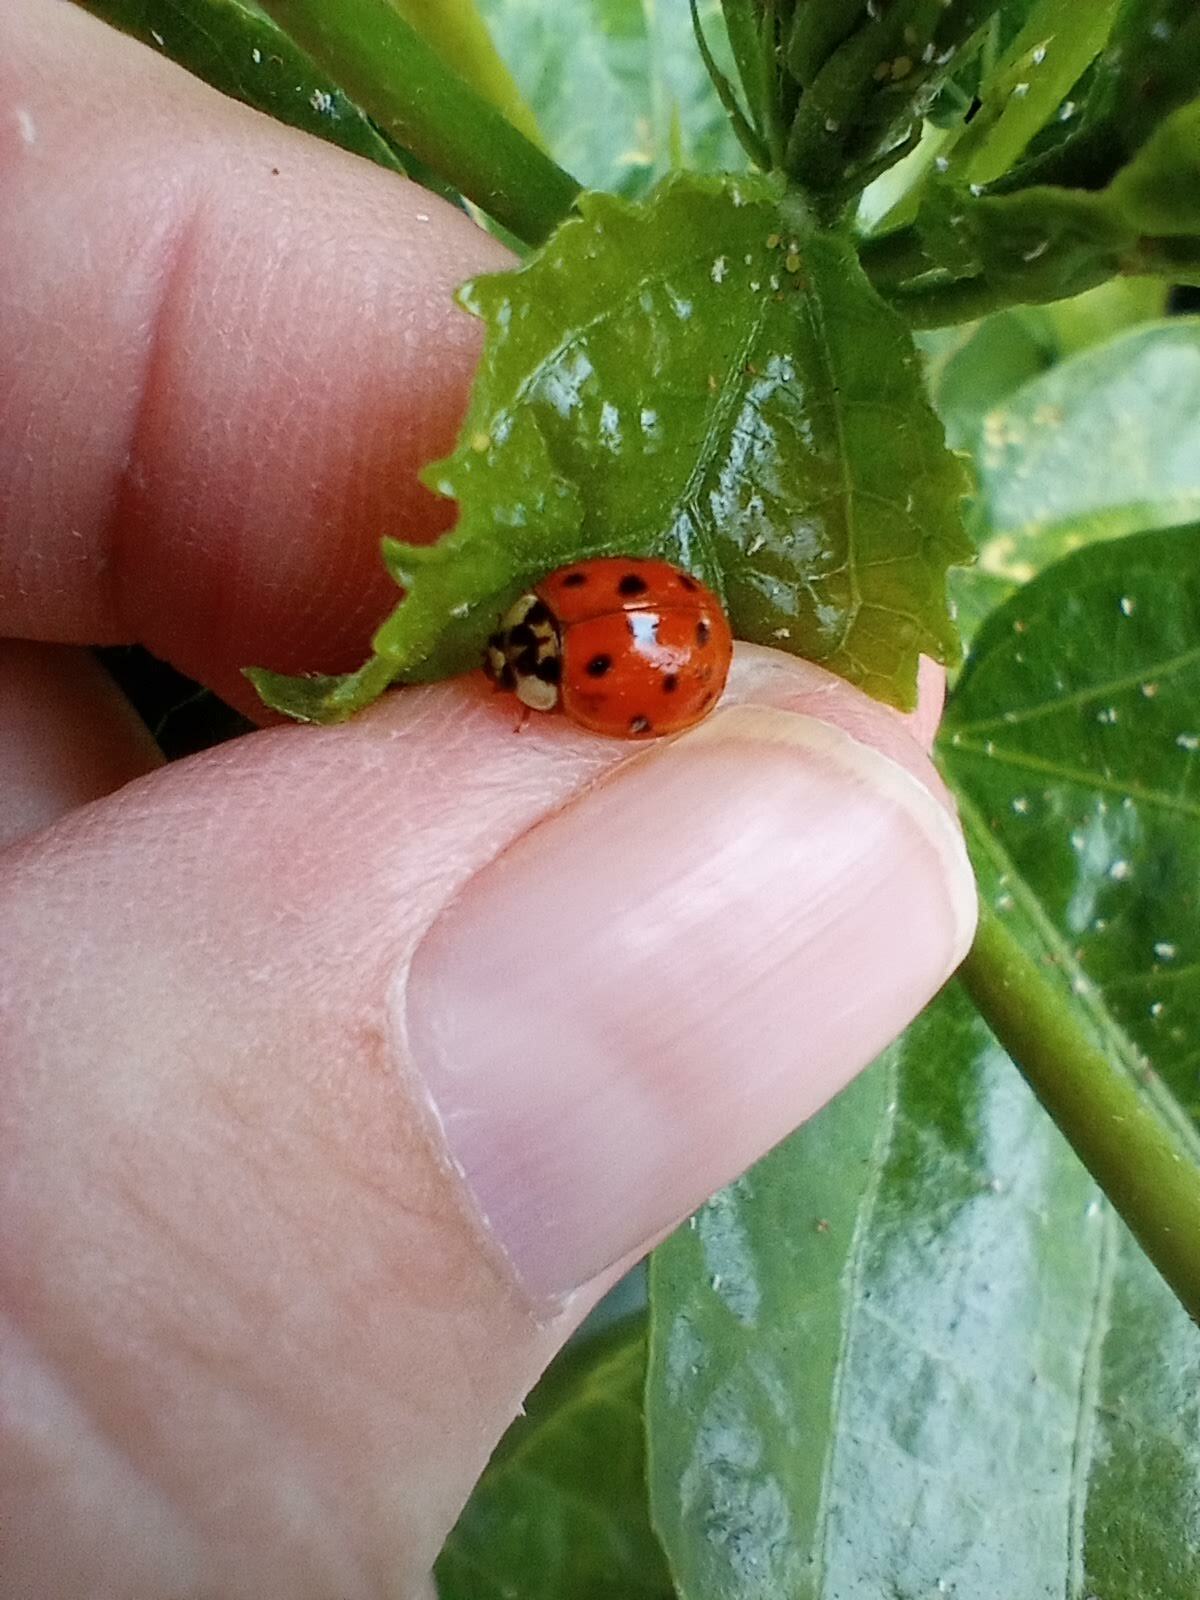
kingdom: Animalia
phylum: Arthropoda
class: Insecta
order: Coleoptera
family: Coccinellidae
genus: Harmonia
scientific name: Harmonia axyridis
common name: Harlequin ladybird
